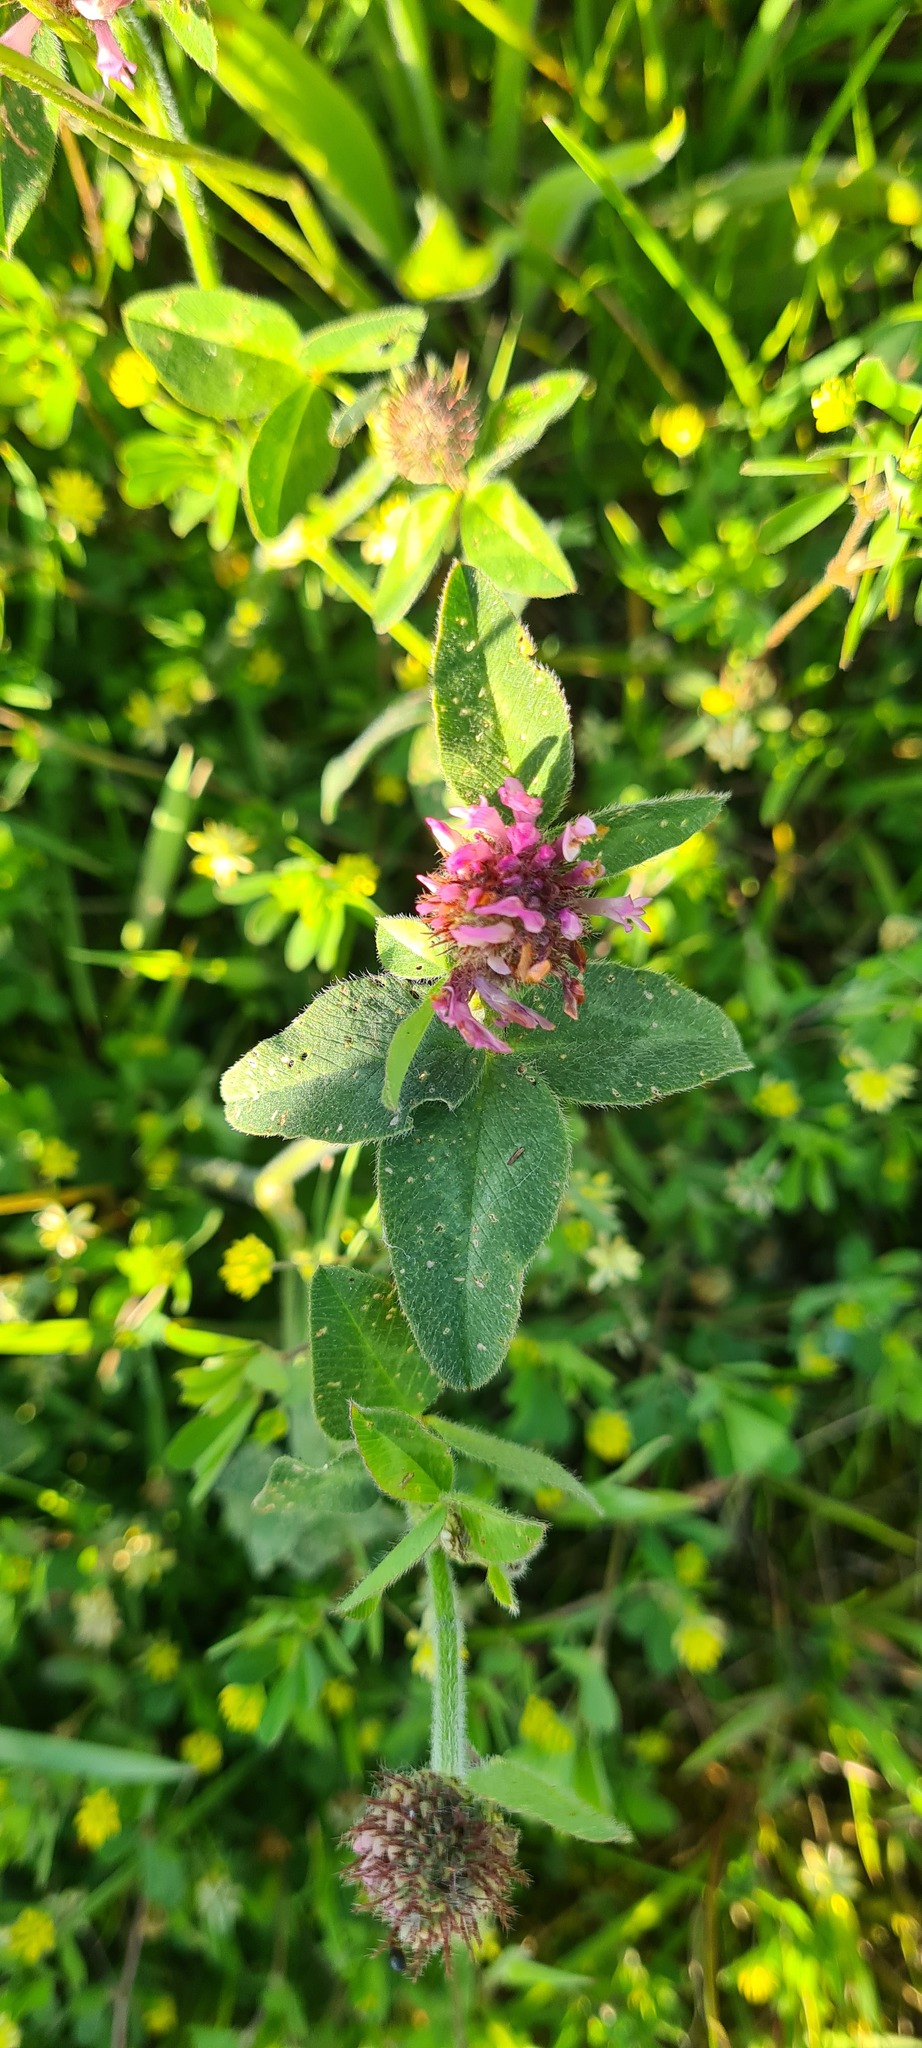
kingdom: Plantae
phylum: Tracheophyta
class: Magnoliopsida
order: Fabales
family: Fabaceae
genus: Trifolium
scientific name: Trifolium pratense
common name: Red clover
